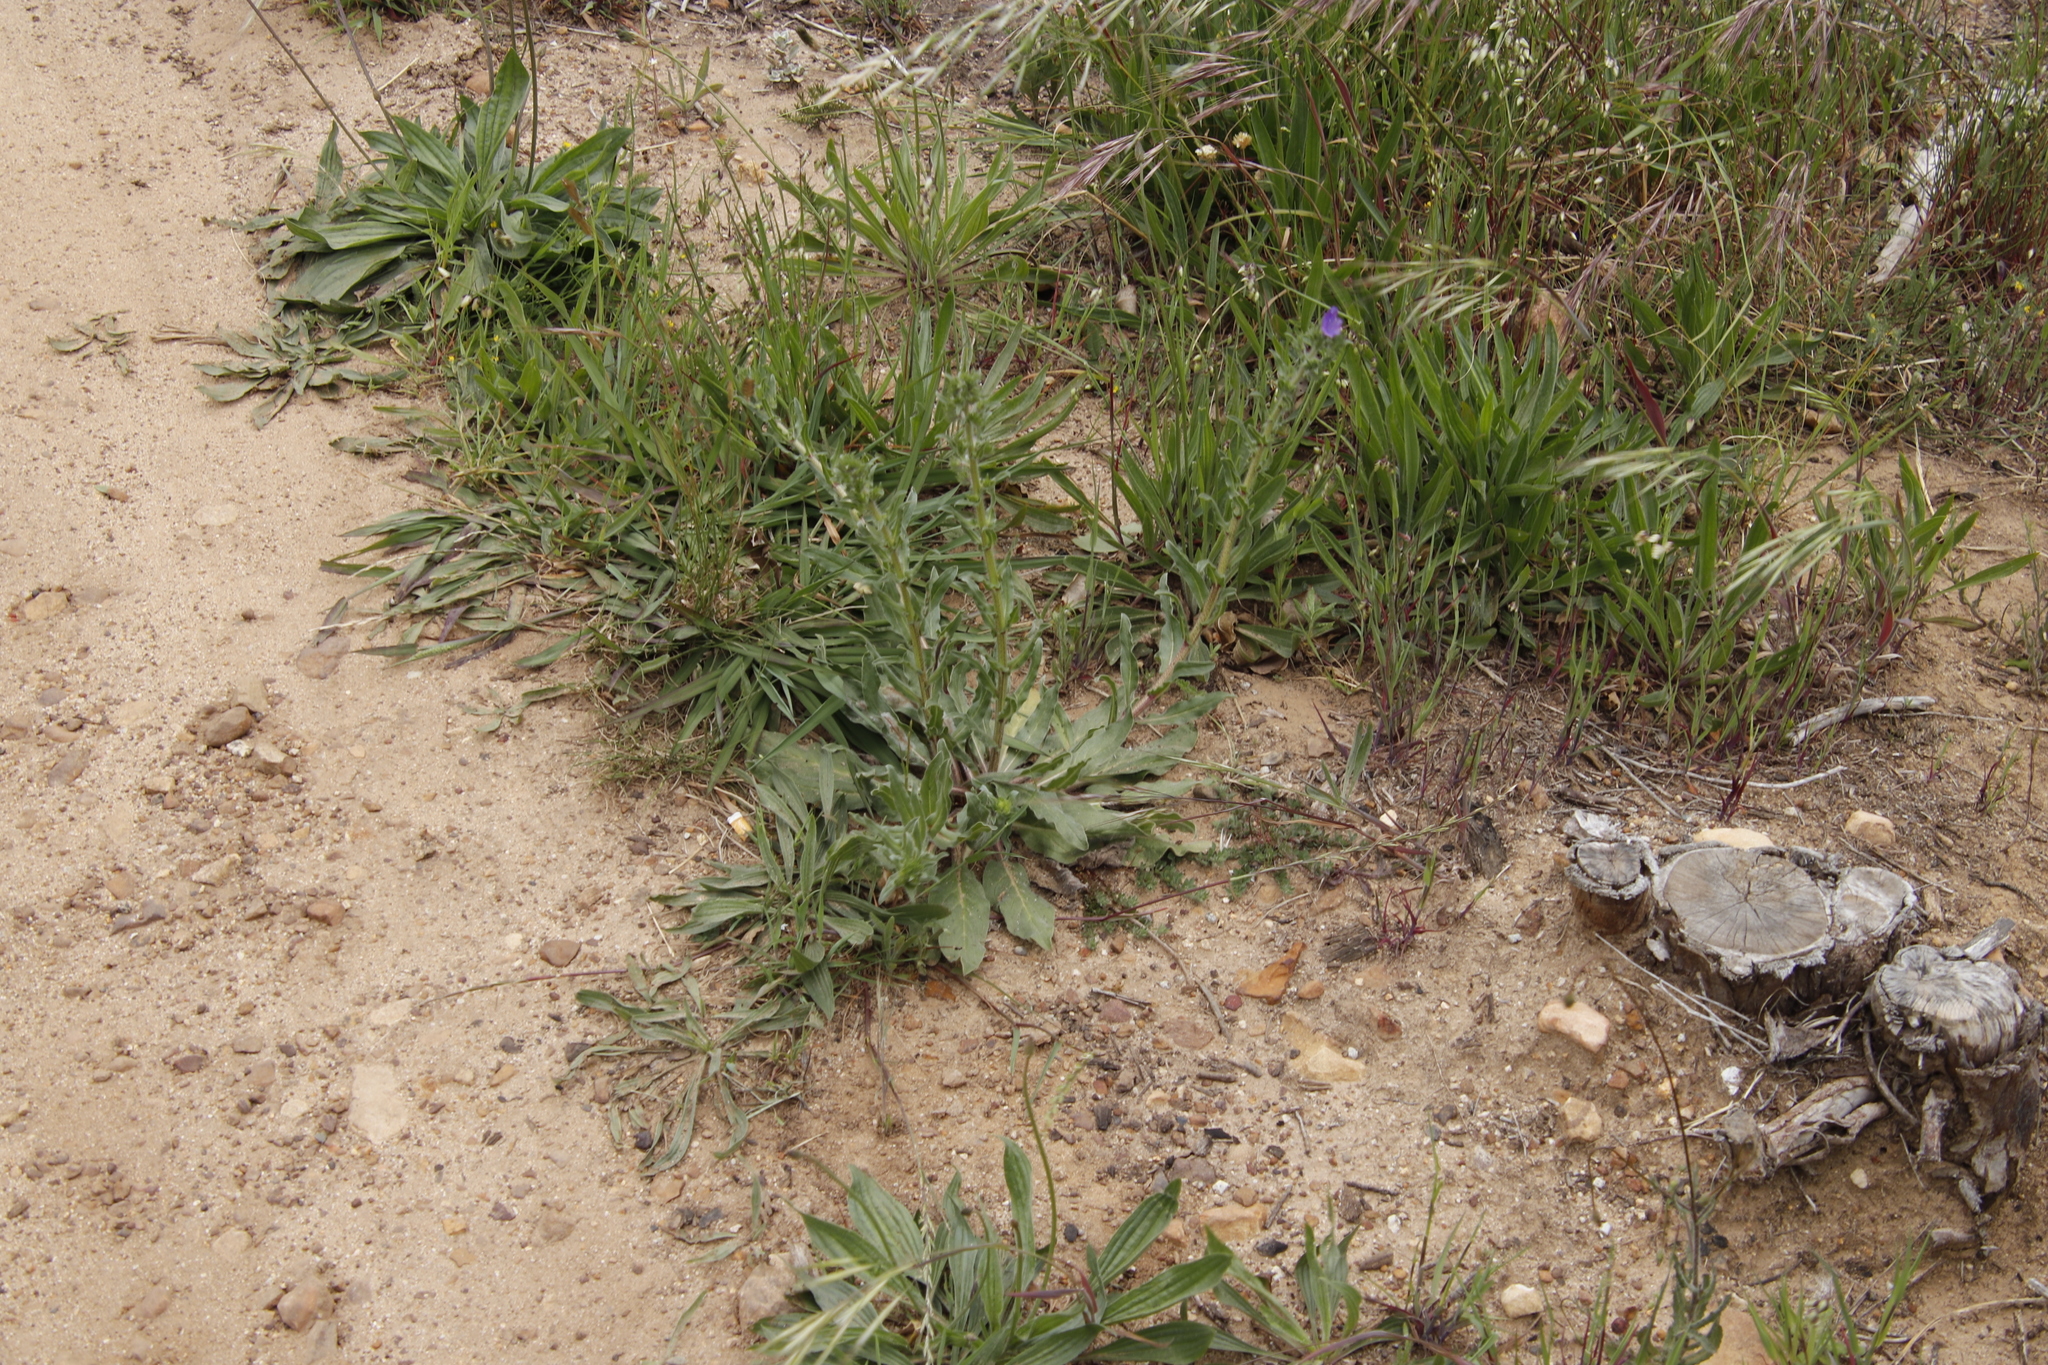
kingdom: Plantae
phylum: Tracheophyta
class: Magnoliopsida
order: Boraginales
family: Boraginaceae
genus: Echium
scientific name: Echium plantagineum
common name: Purple viper's-bugloss
